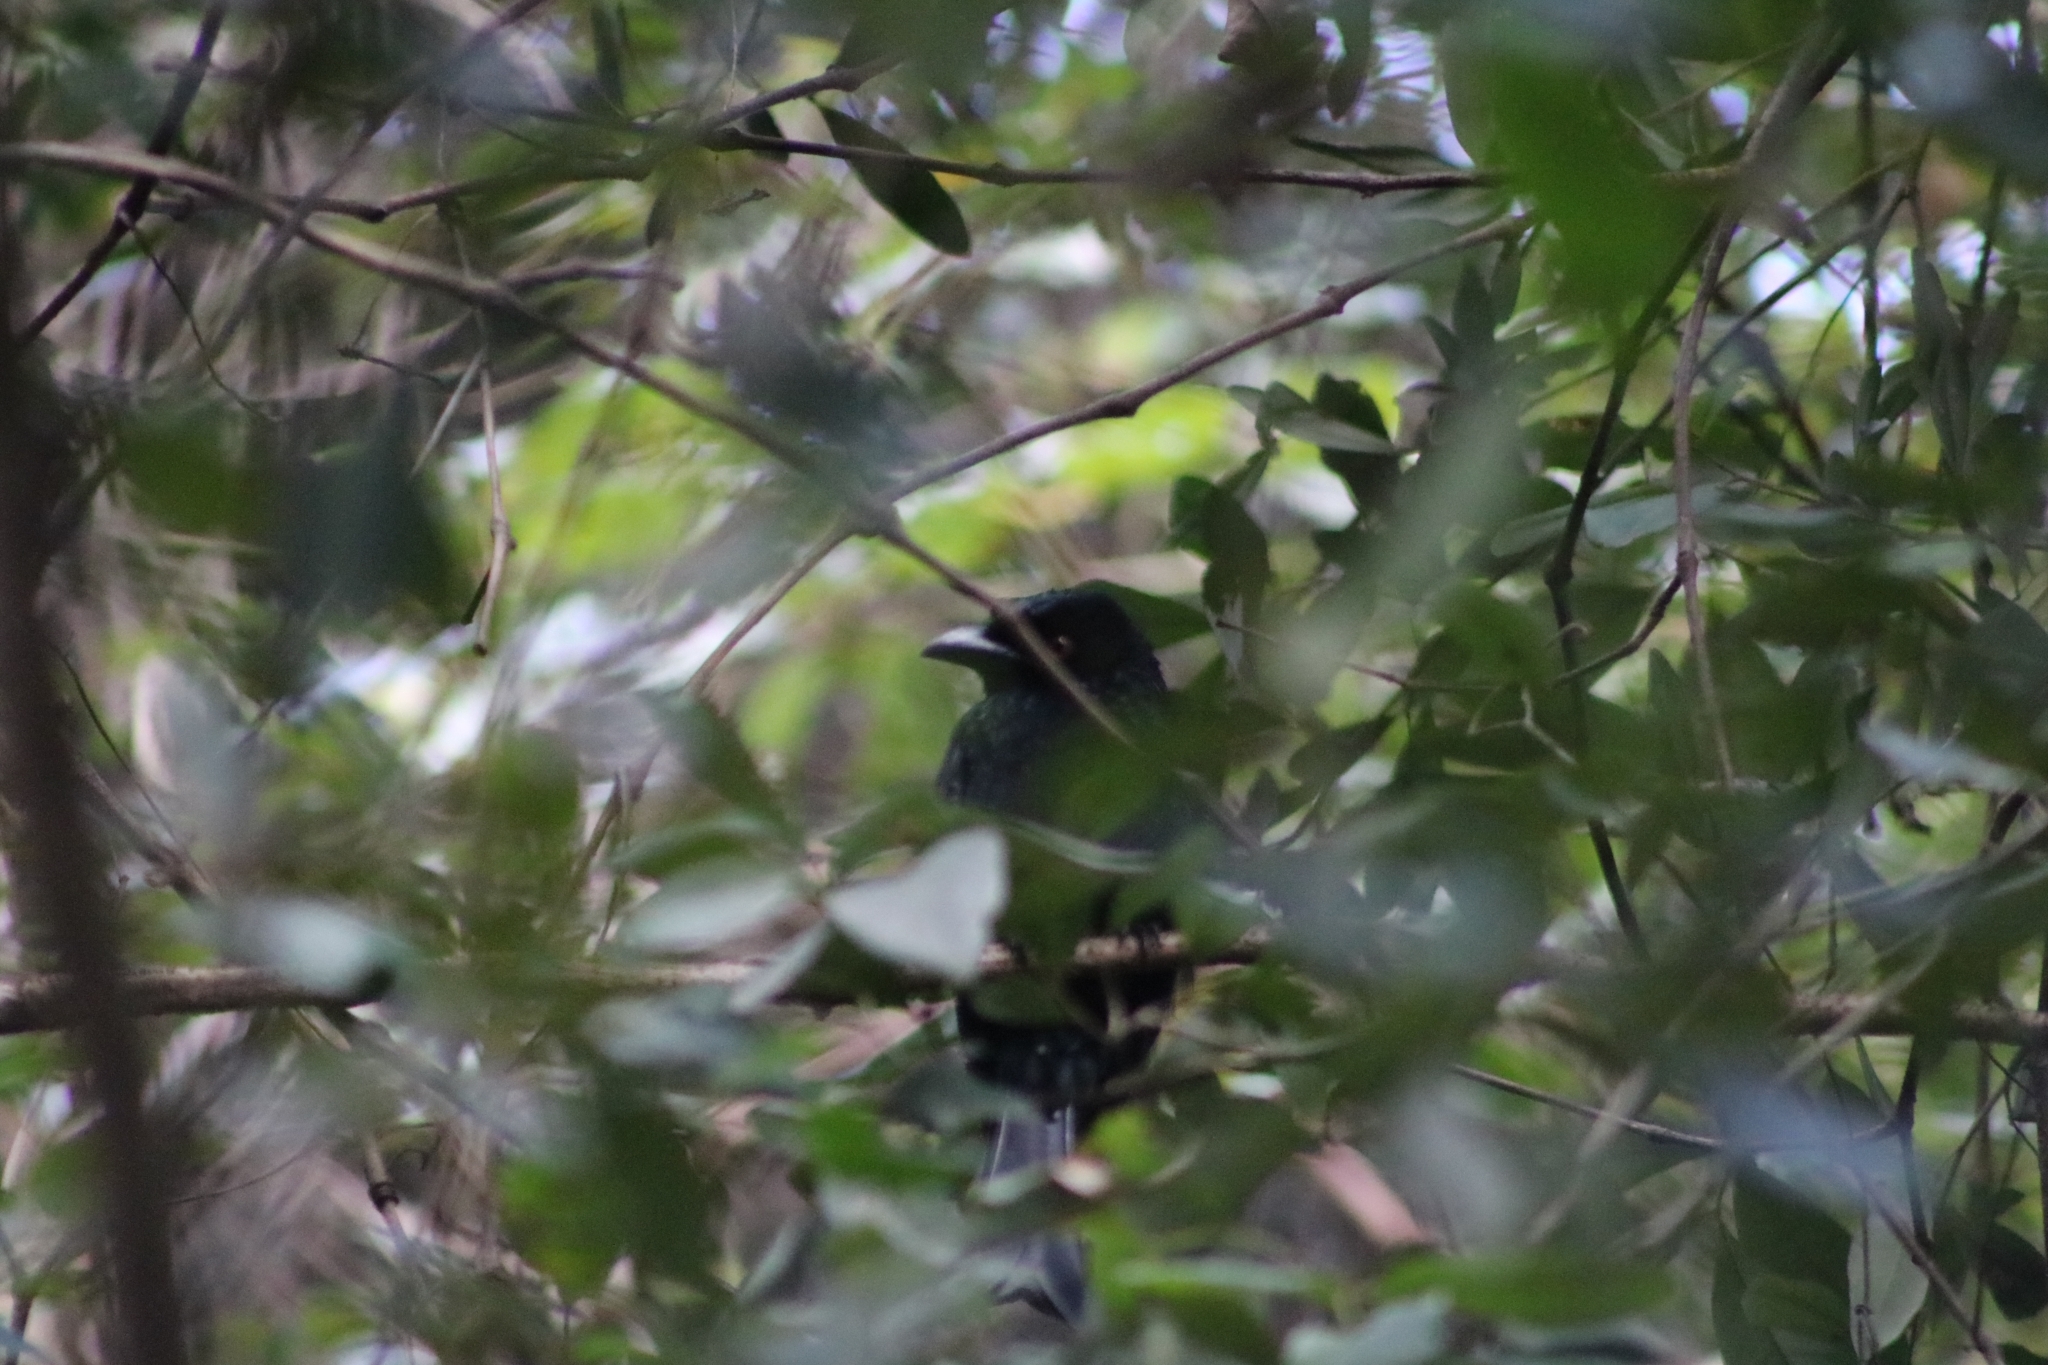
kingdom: Animalia
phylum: Chordata
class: Aves
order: Passeriformes
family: Dicruridae
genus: Dicrurus
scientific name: Dicrurus bracteatus
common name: Spangled drongo
